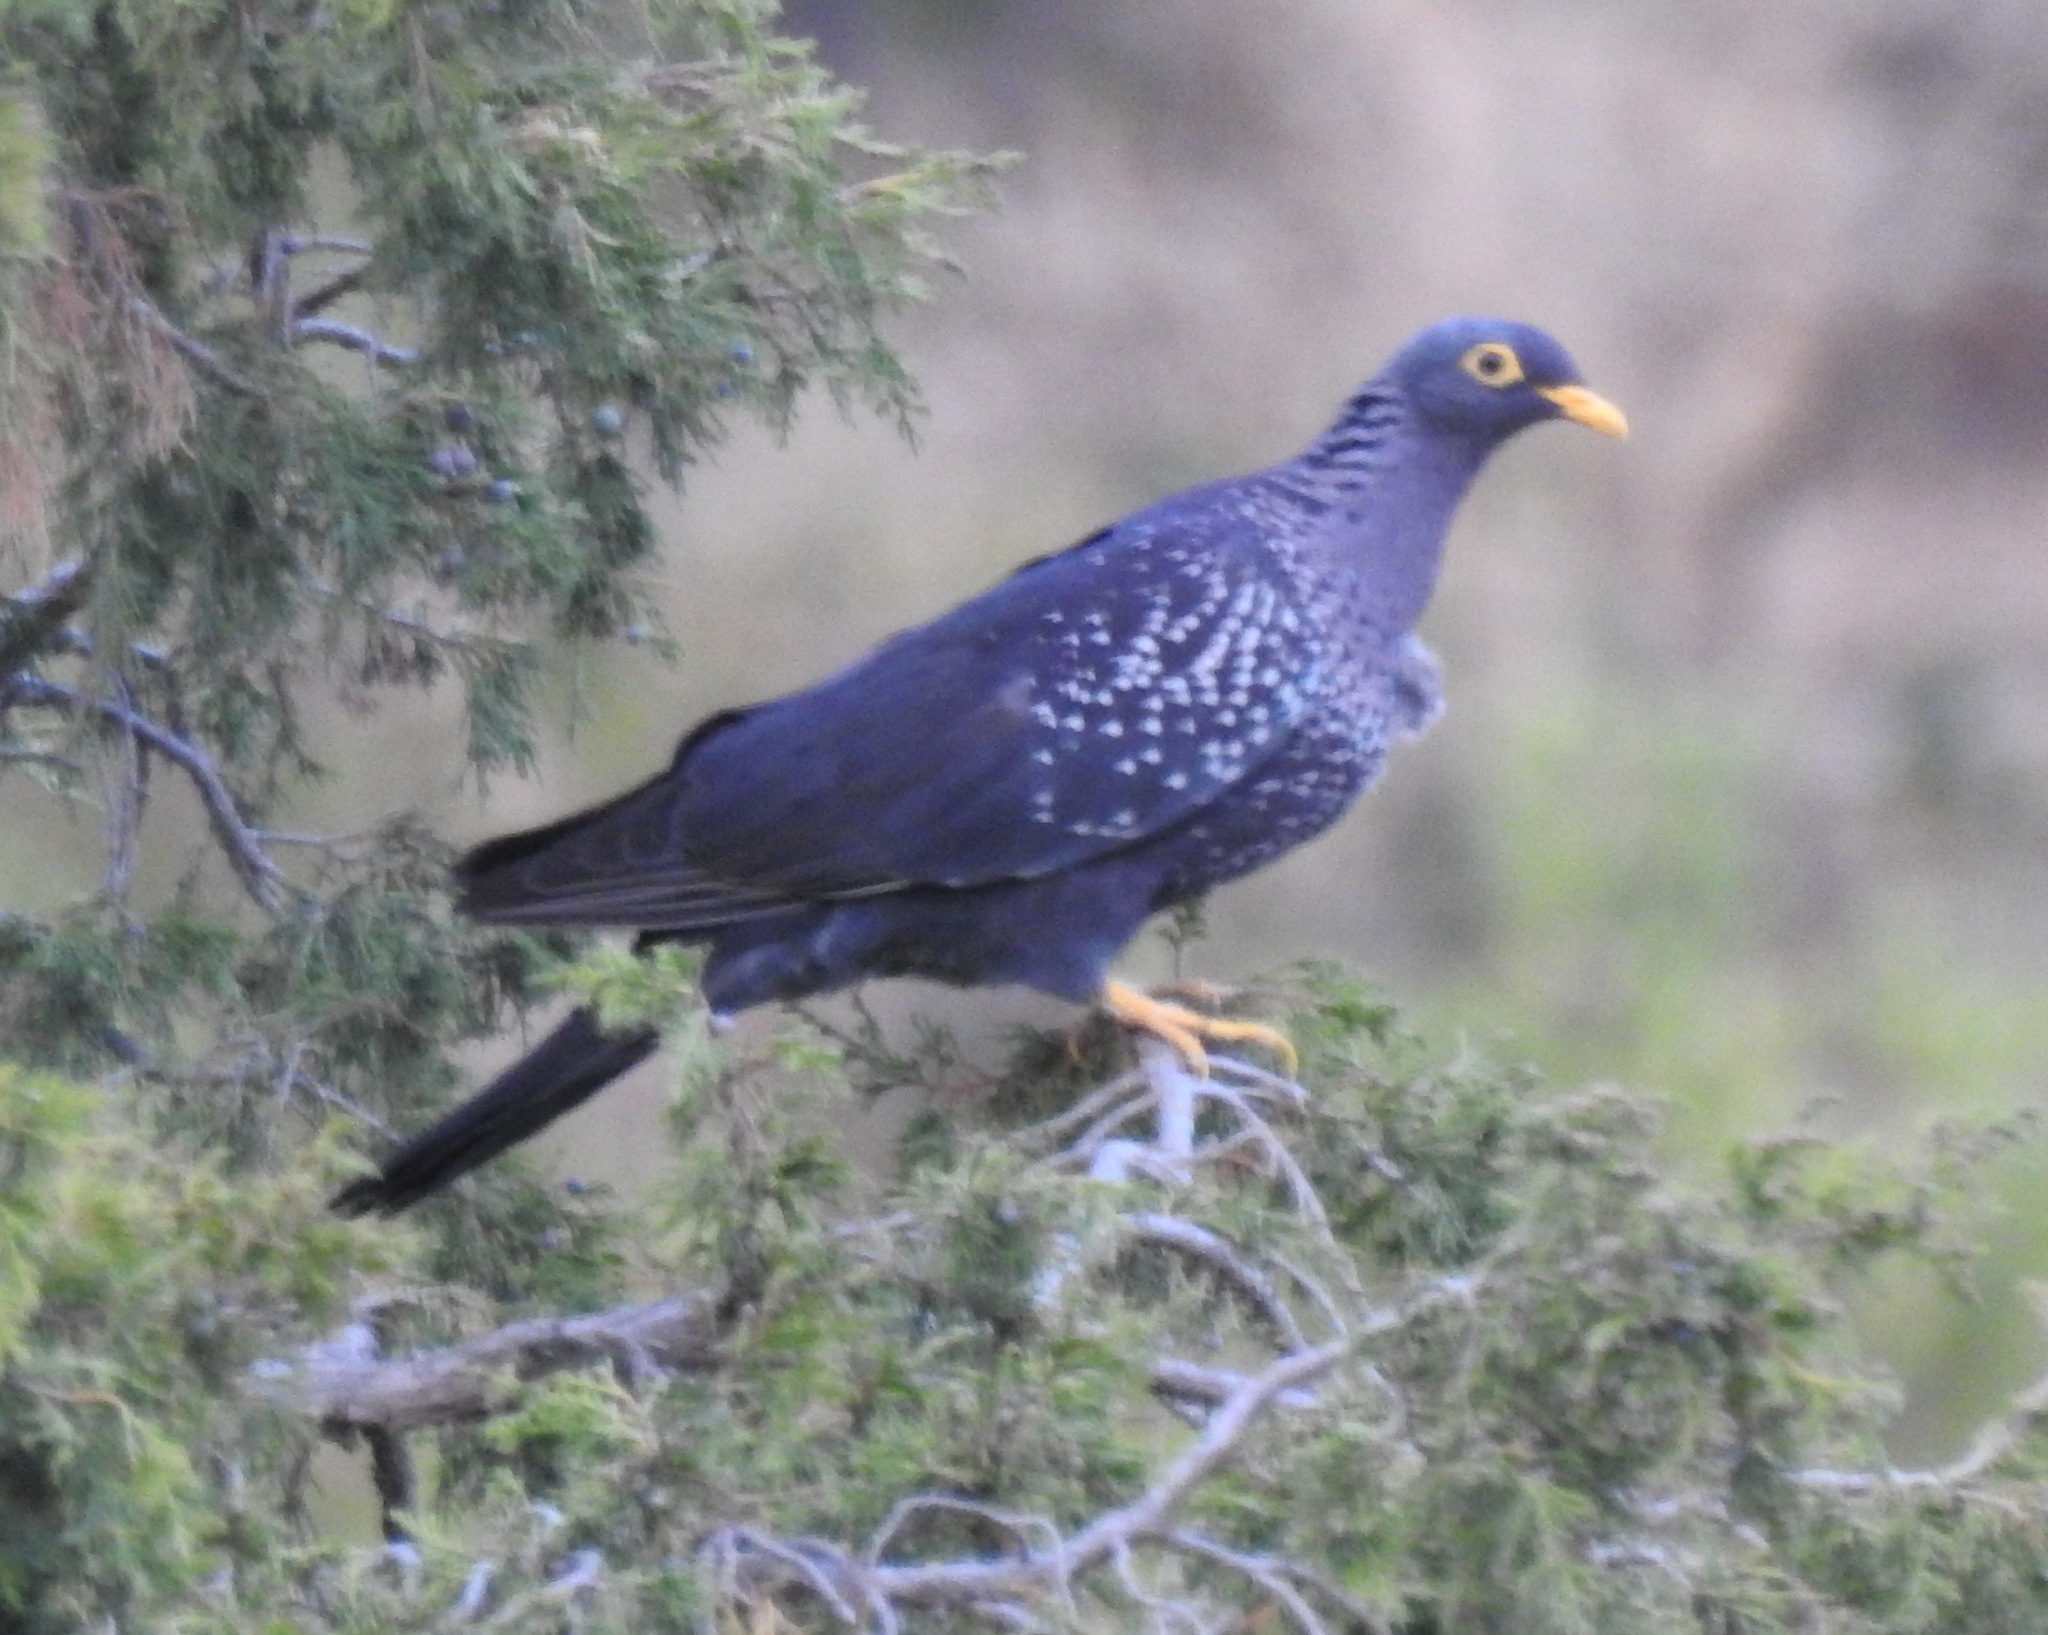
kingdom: Animalia
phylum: Chordata
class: Aves
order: Columbiformes
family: Columbidae
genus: Columba
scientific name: Columba arquatrix
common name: African olive pigeon
